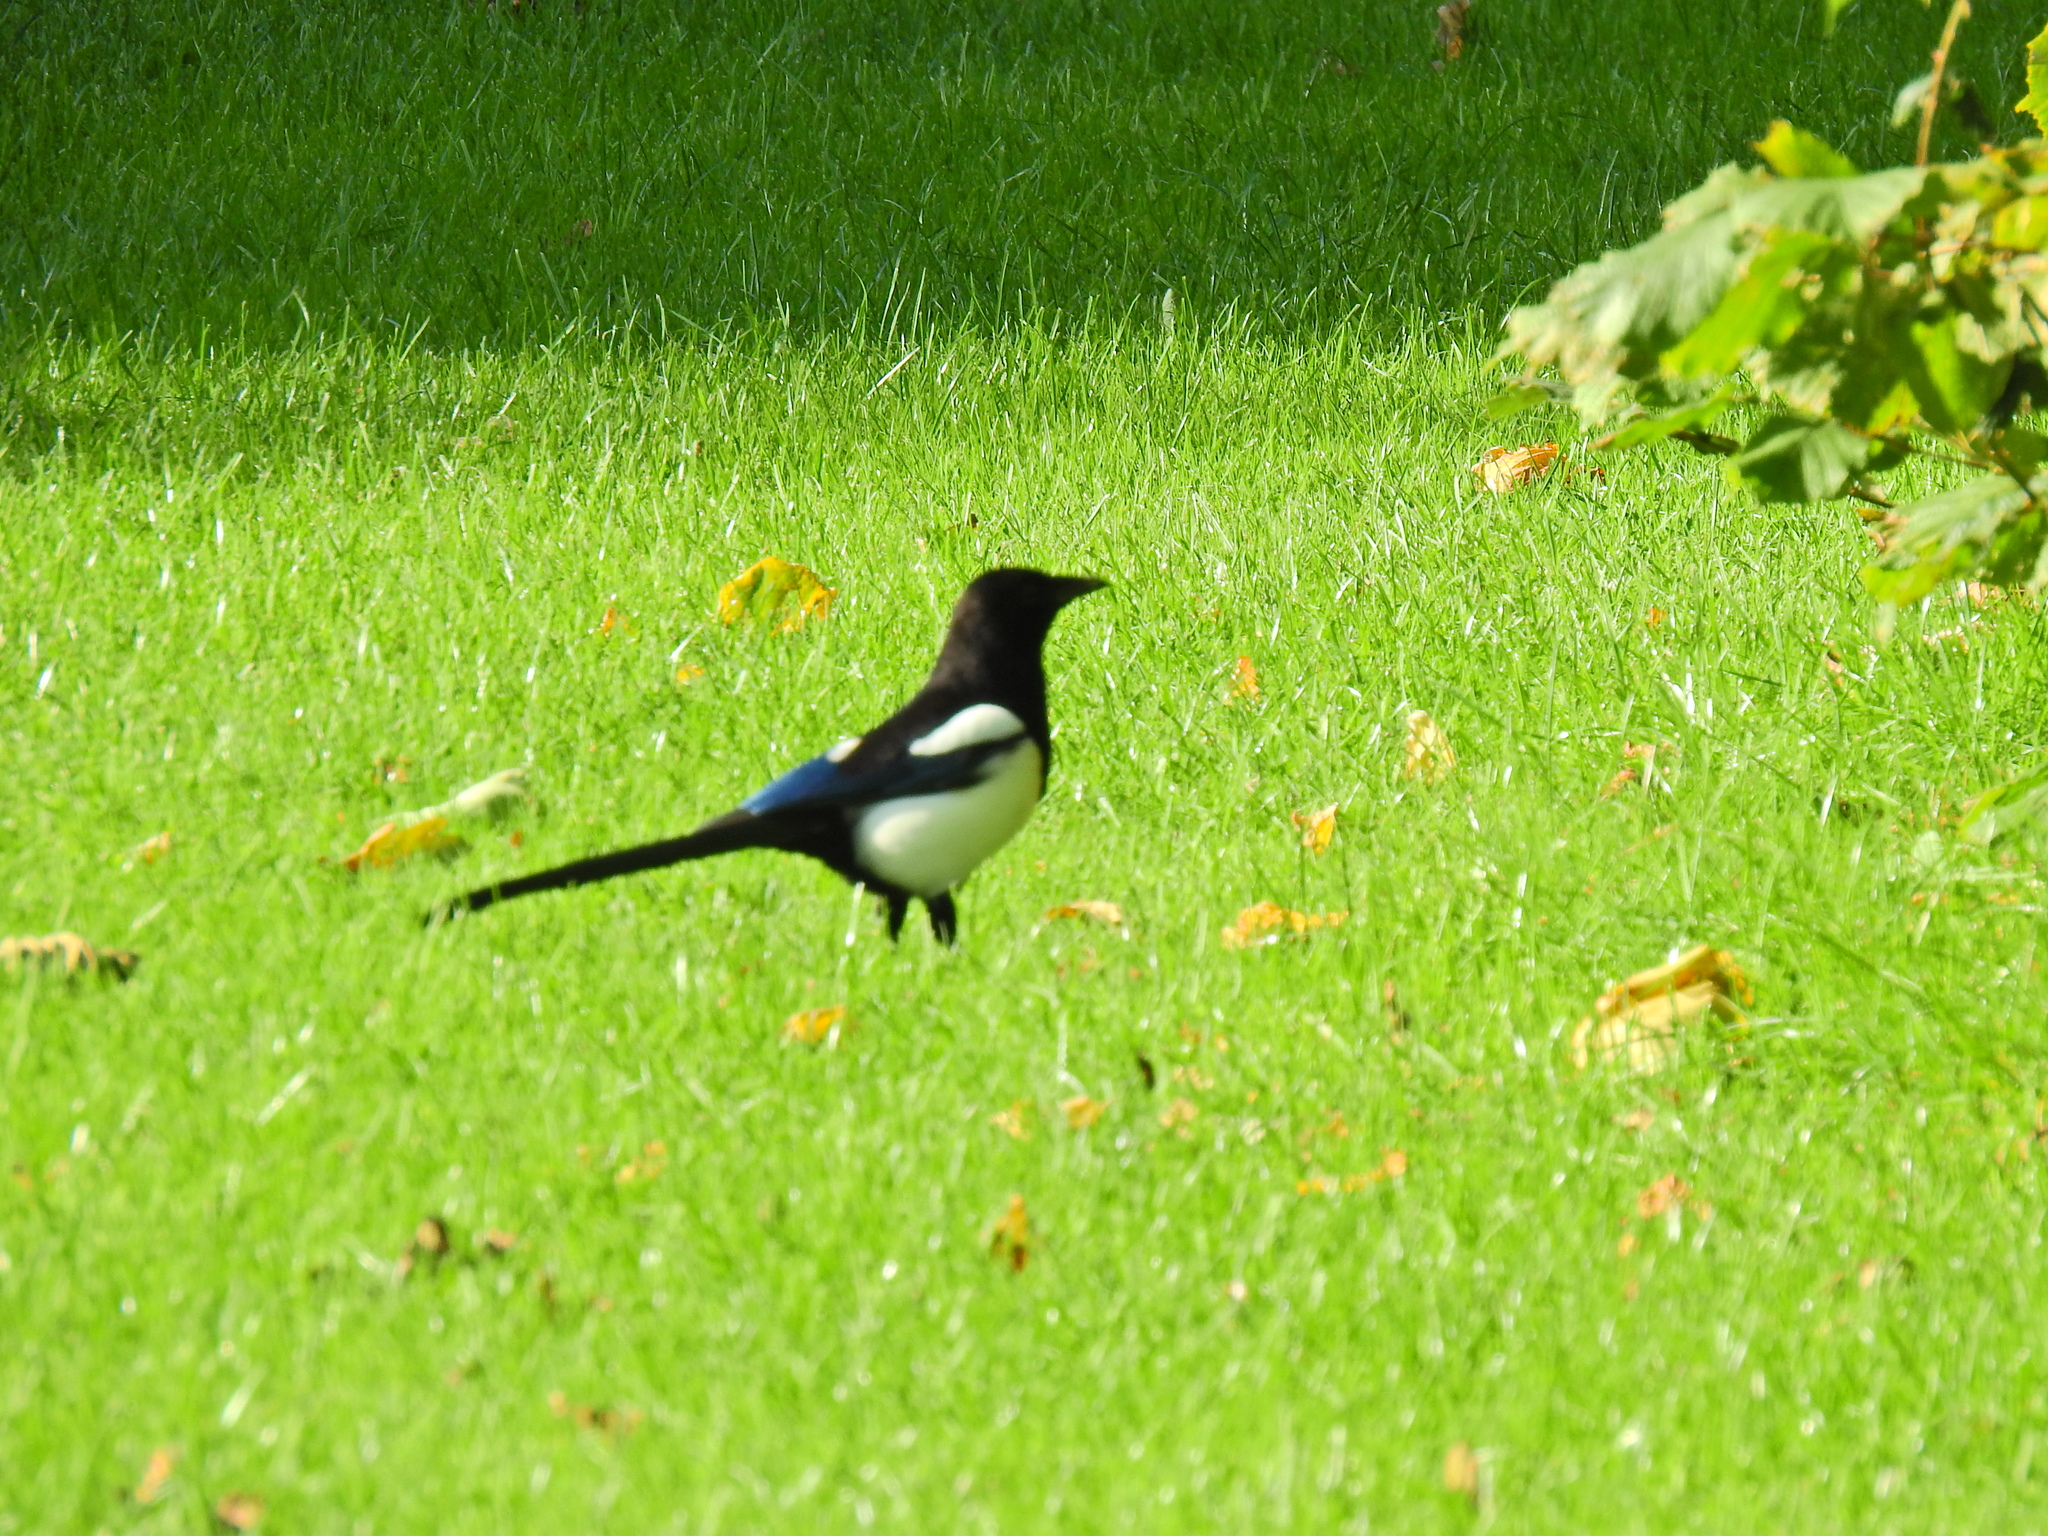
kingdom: Animalia
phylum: Chordata
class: Aves
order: Passeriformes
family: Corvidae
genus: Pica
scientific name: Pica pica
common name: Eurasian magpie
